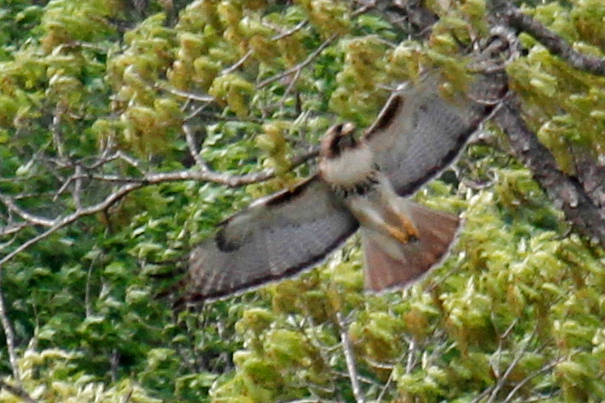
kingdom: Animalia
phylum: Chordata
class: Aves
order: Accipitriformes
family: Accipitridae
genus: Buteo
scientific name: Buteo jamaicensis
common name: Red-tailed hawk
